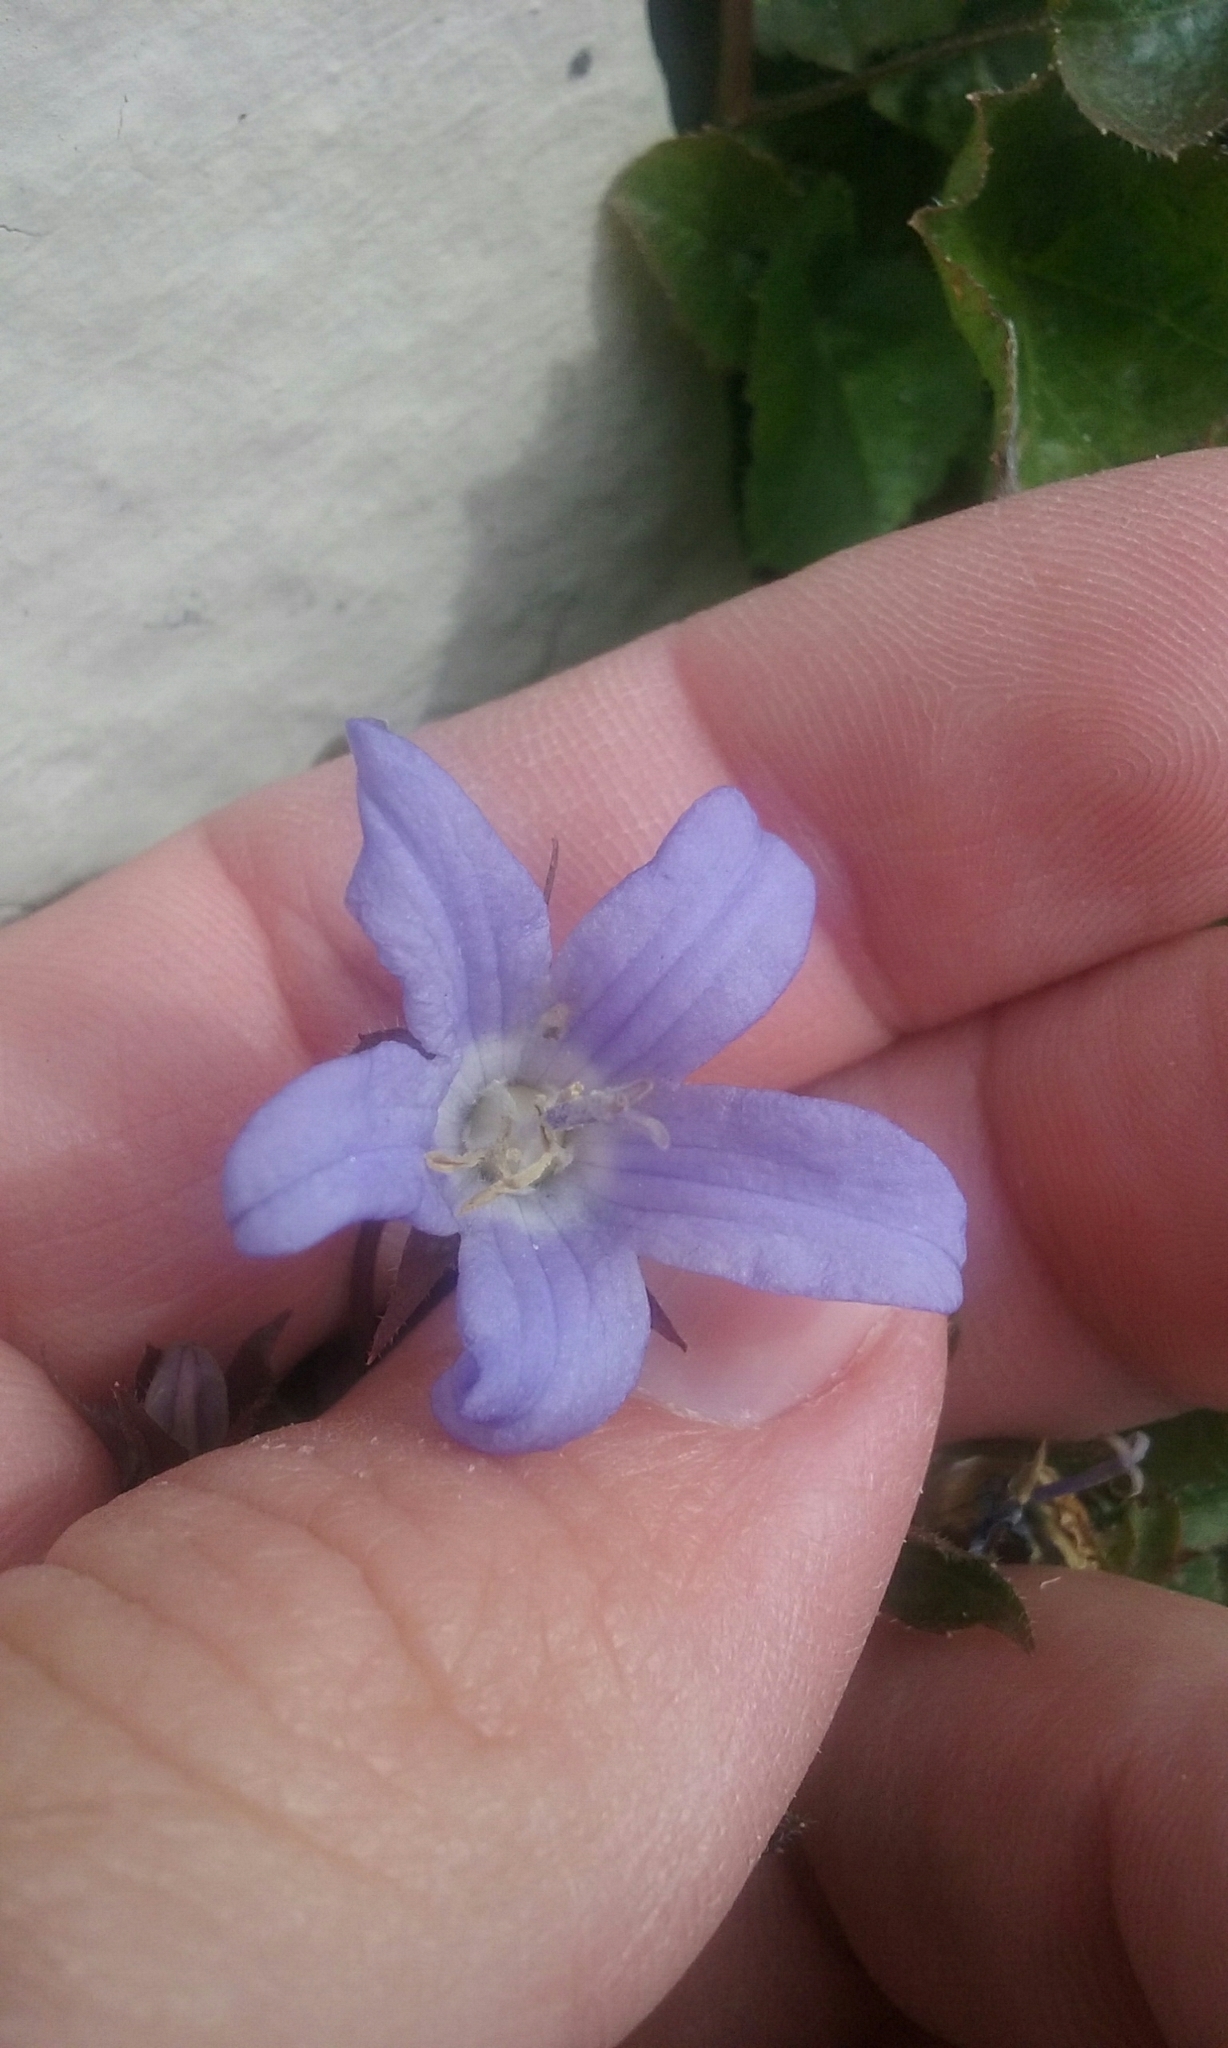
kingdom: Plantae
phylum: Tracheophyta
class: Magnoliopsida
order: Asterales
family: Campanulaceae
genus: Campanula
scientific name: Campanula poscharskyana
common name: Trailing bellflower
